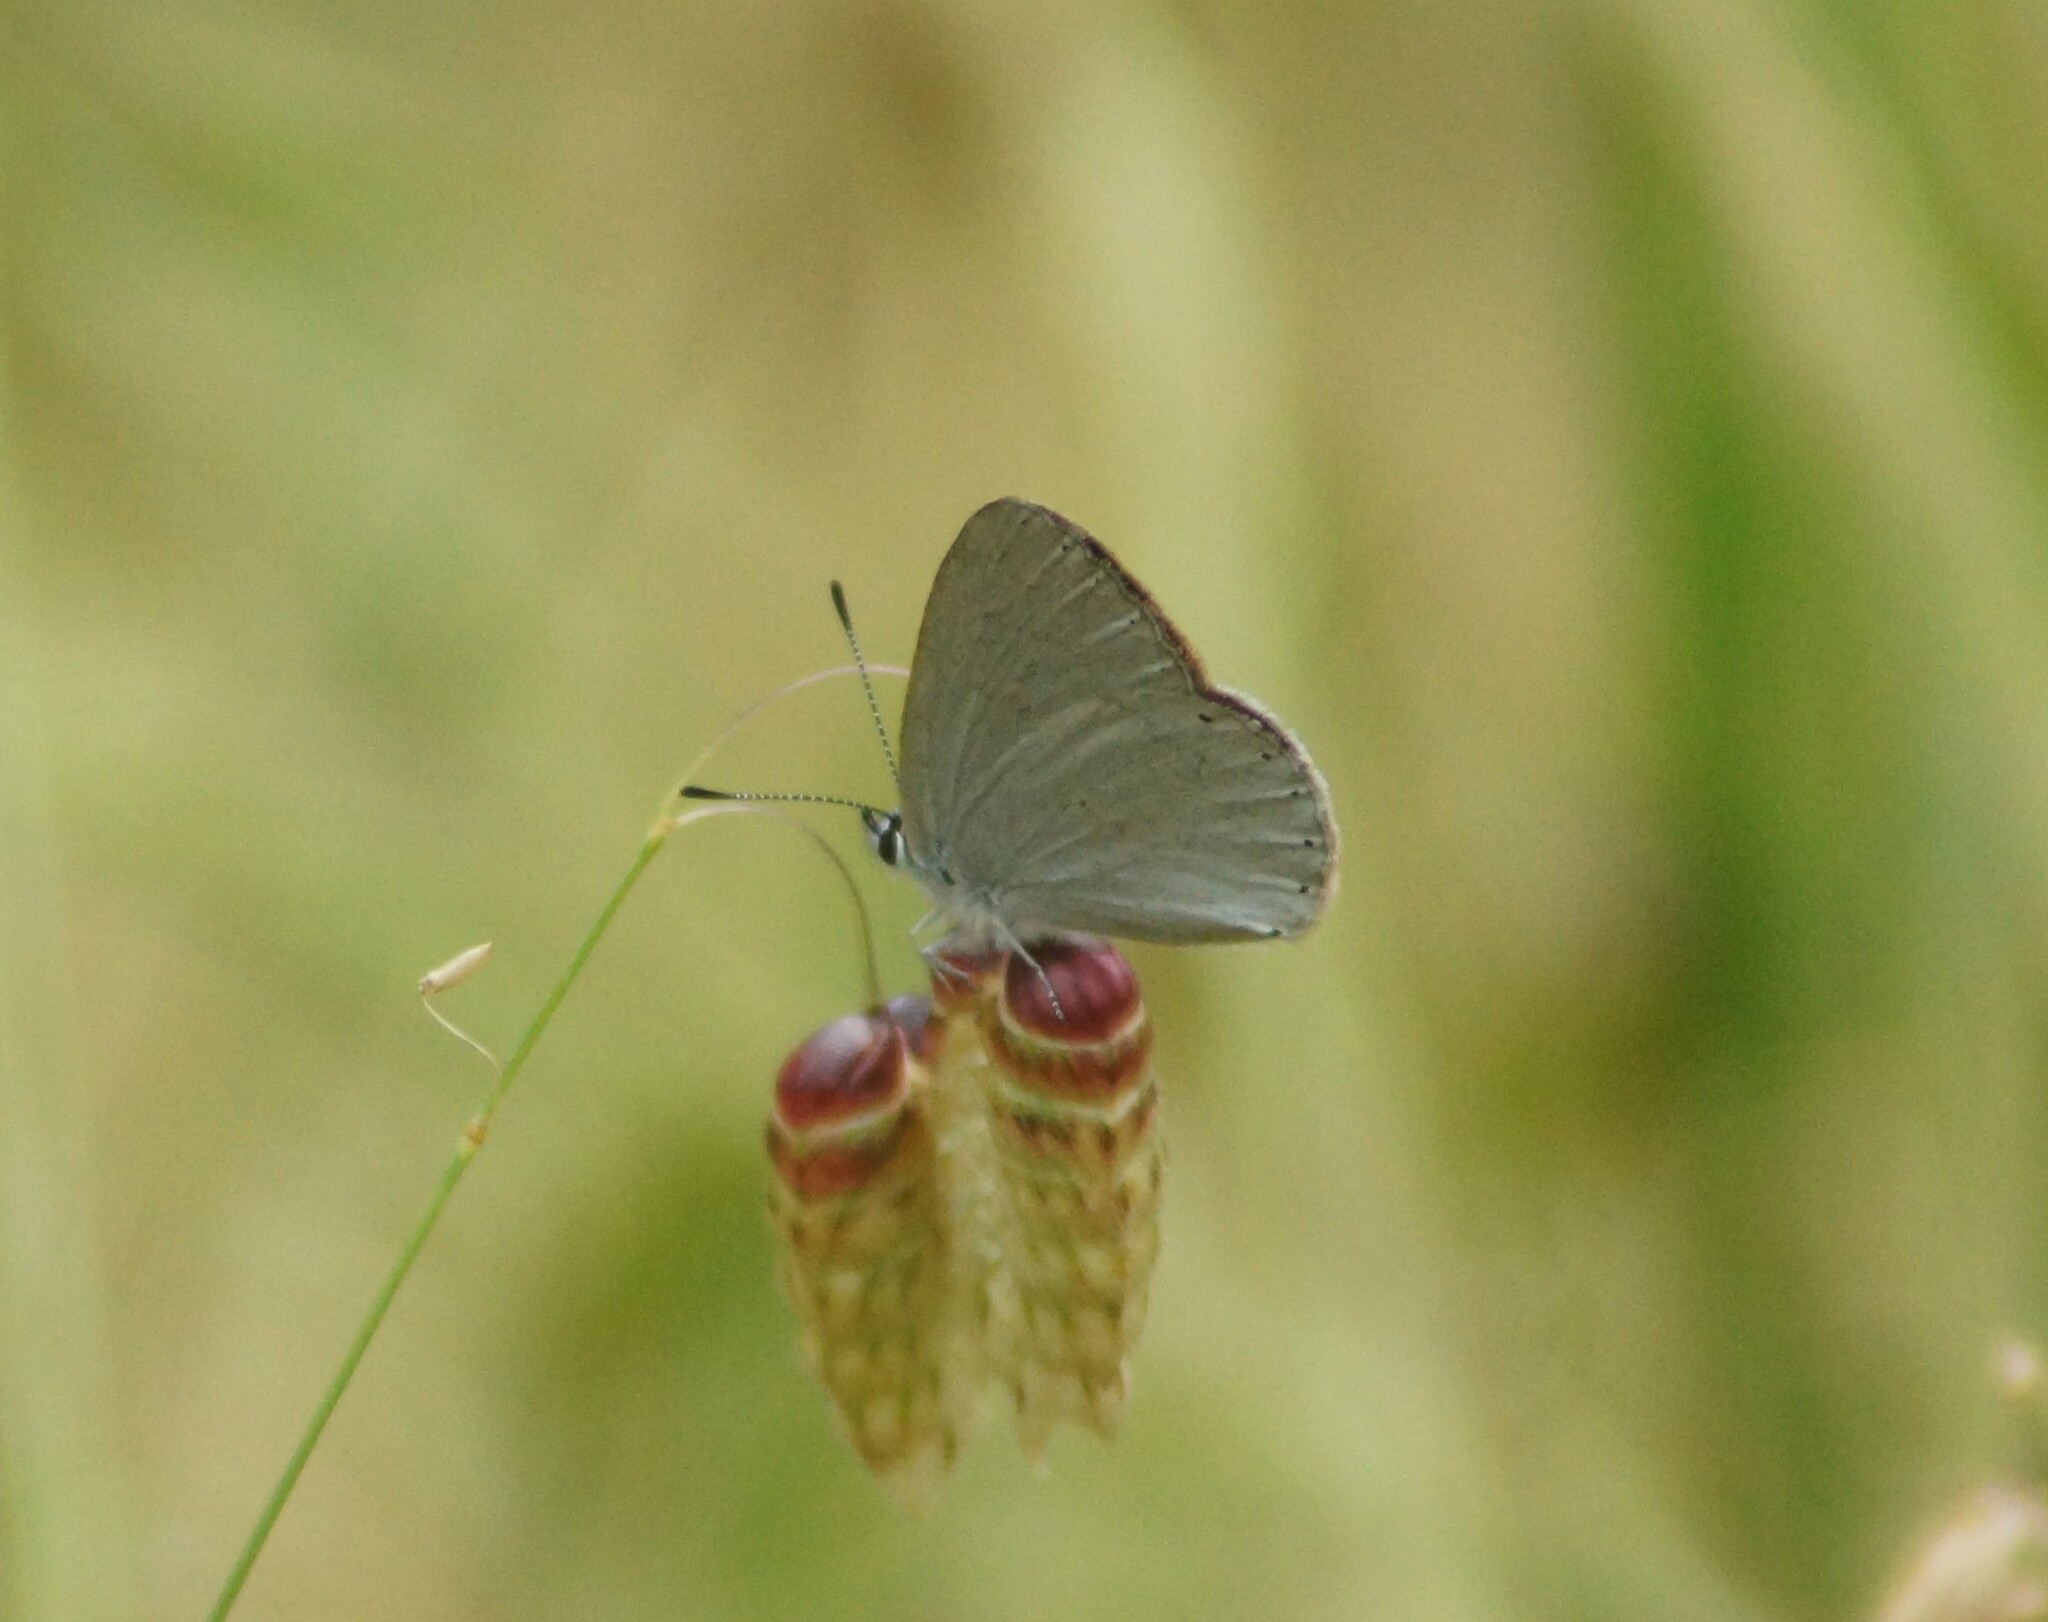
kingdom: Animalia
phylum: Arthropoda
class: Insecta
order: Lepidoptera
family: Lycaenidae
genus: Candalides
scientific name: Candalides heathi
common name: Rayed blue
